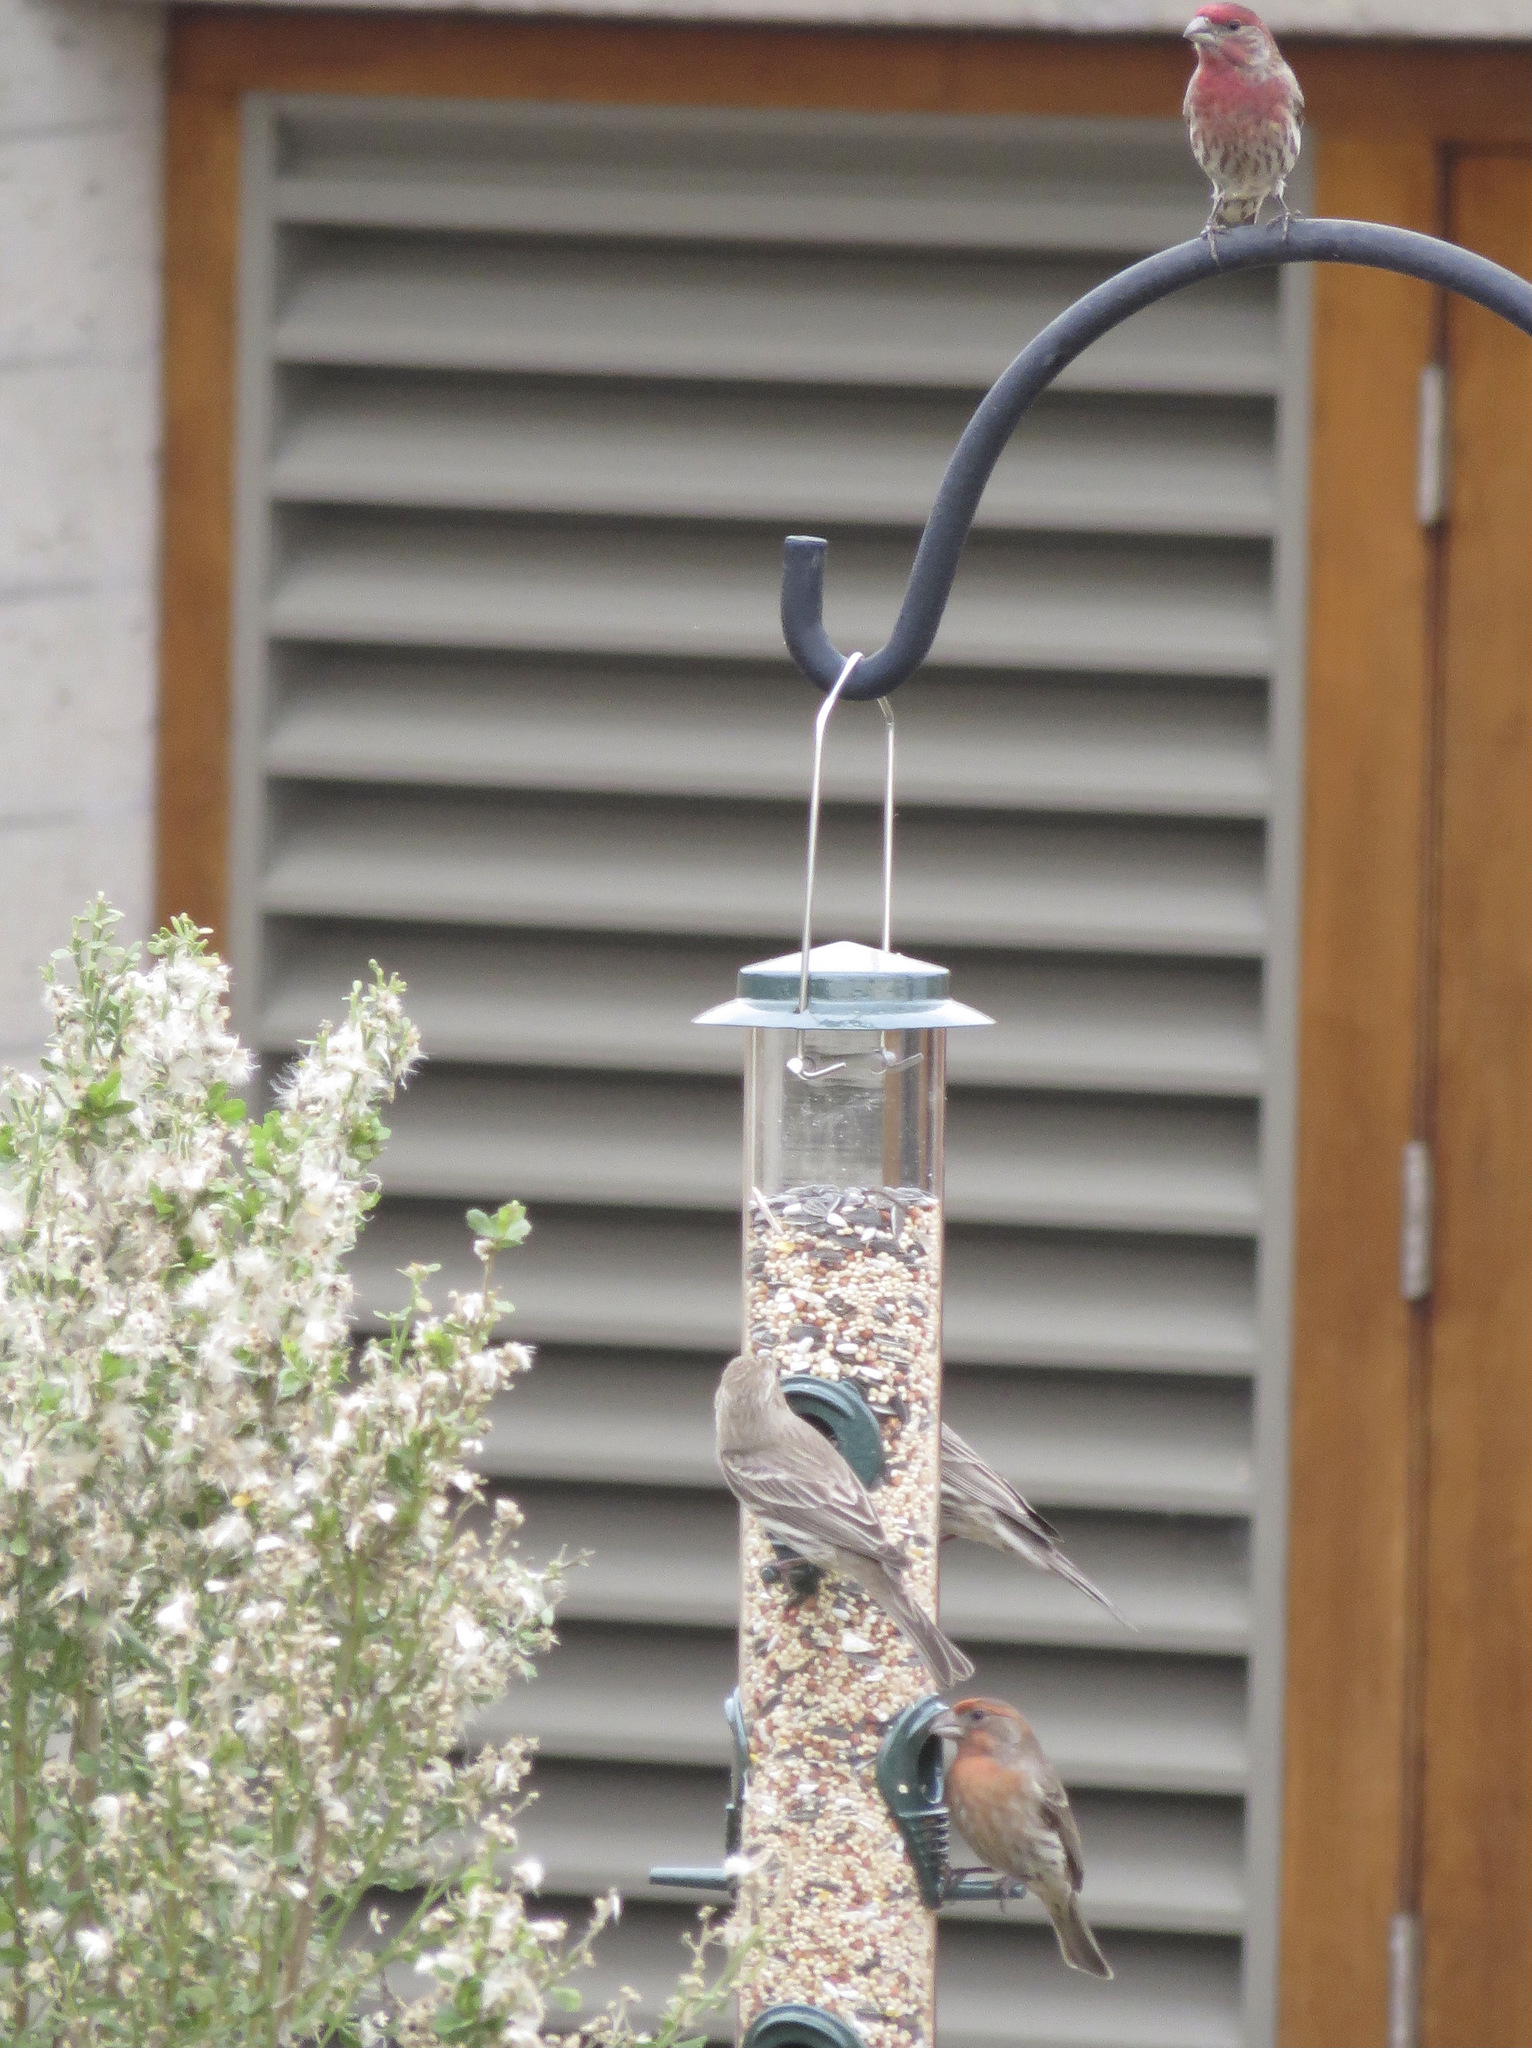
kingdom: Animalia
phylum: Chordata
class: Aves
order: Passeriformes
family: Fringillidae
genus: Haemorhous
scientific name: Haemorhous mexicanus
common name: House finch
